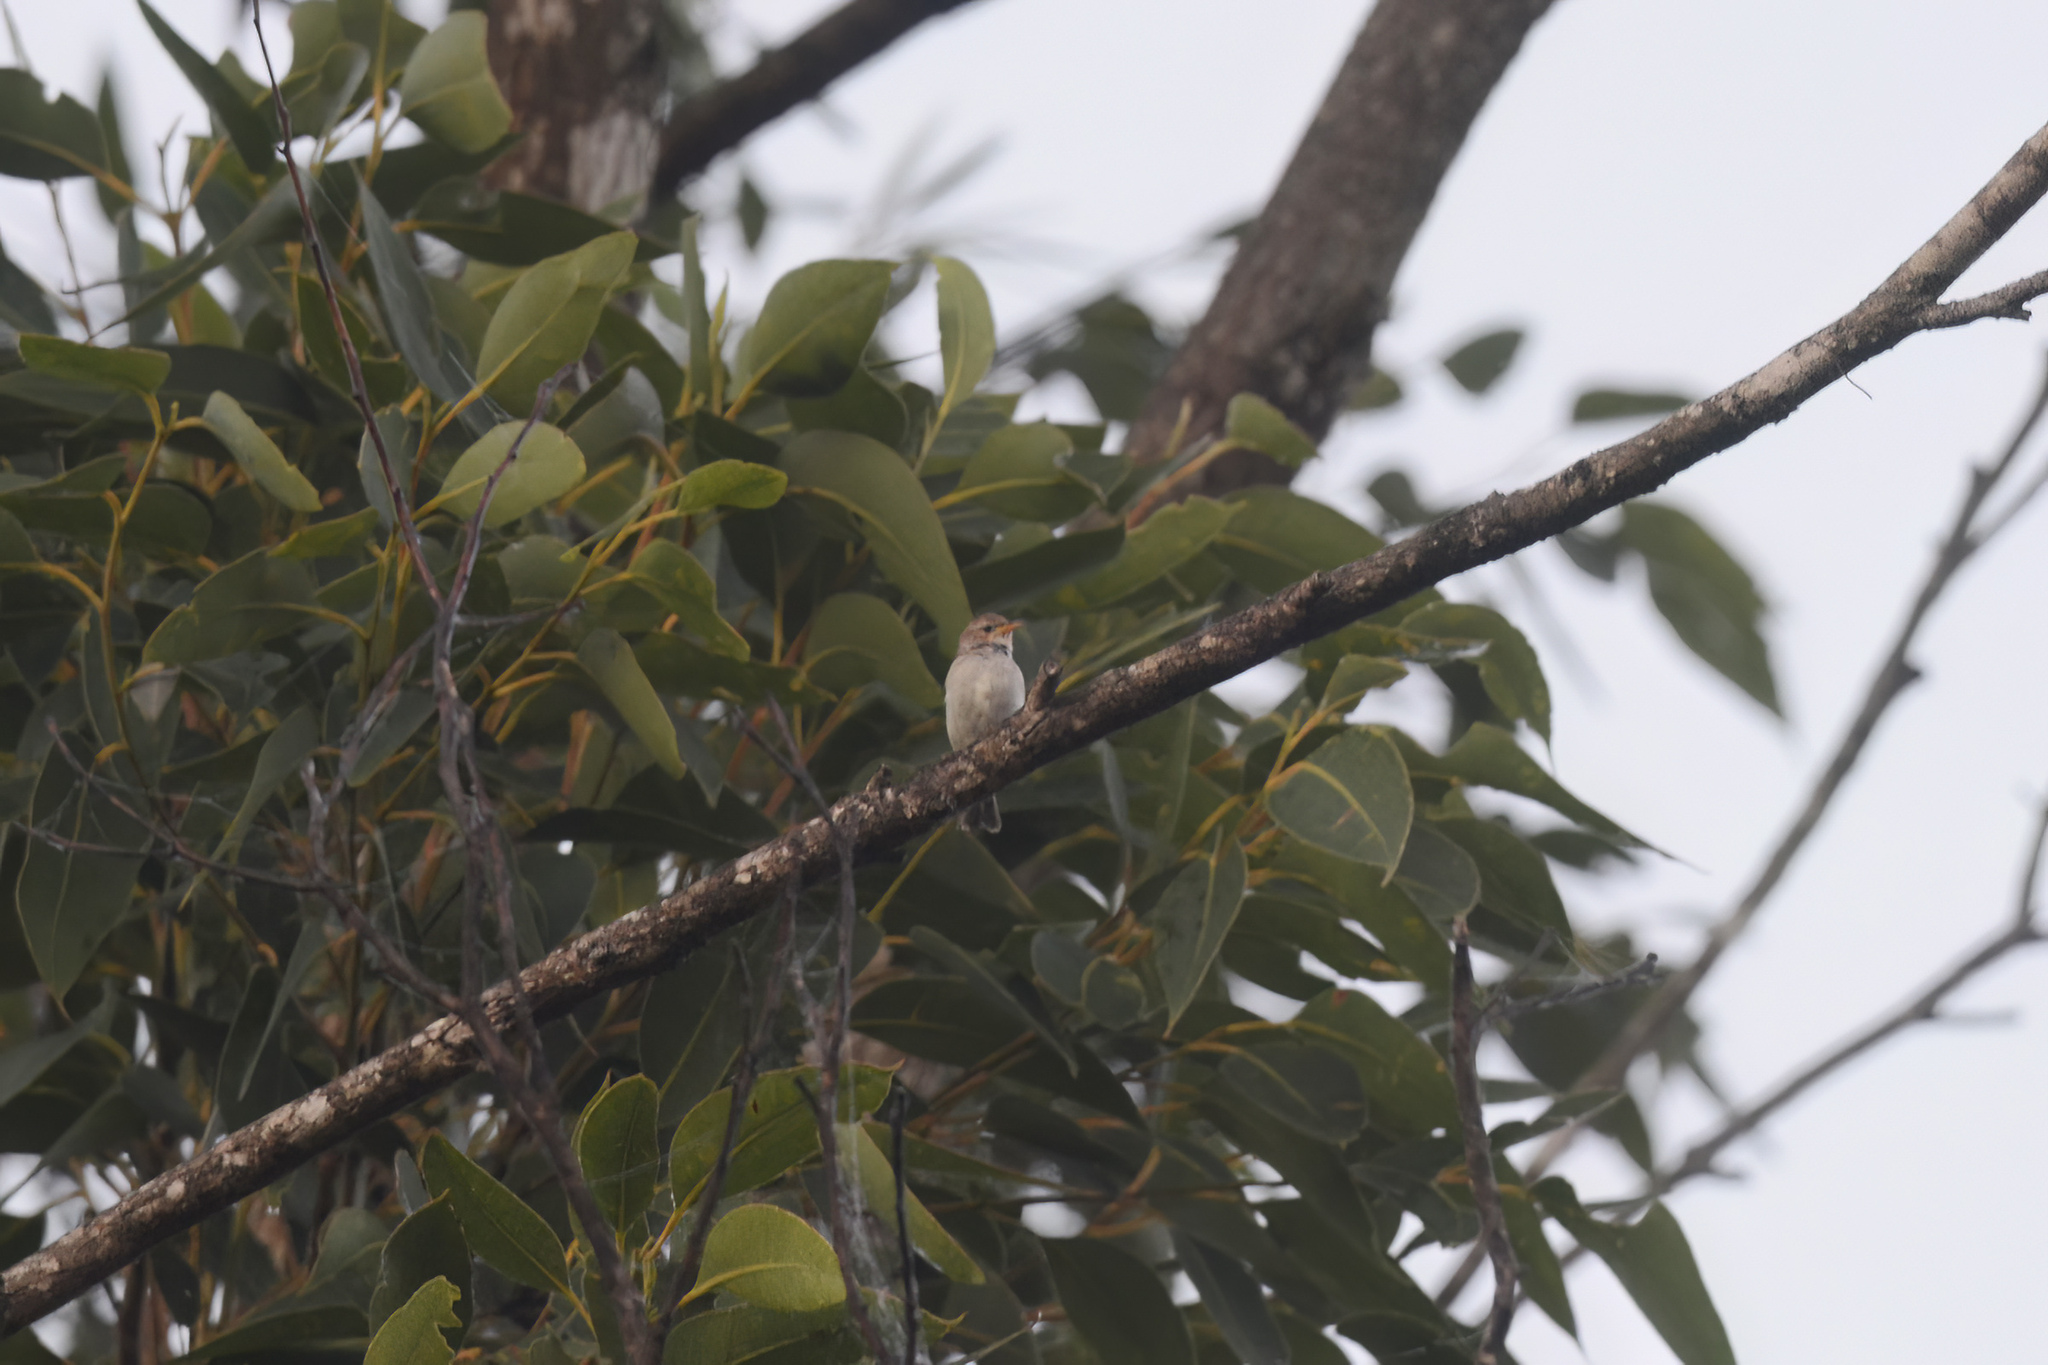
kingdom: Animalia
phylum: Chordata
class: Aves
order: Passeriformes
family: Meliphagidae
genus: Myzomela
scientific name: Myzomela sanguinolenta
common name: Scarlet myzomela
